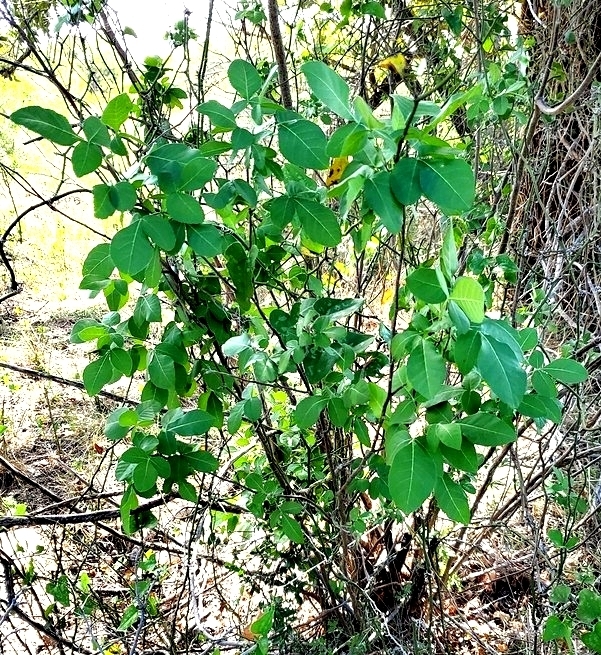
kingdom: Plantae
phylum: Tracheophyta
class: Magnoliopsida
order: Sapindales
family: Rutaceae
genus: Ptelea
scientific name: Ptelea trifoliata
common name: Common hop-tree
